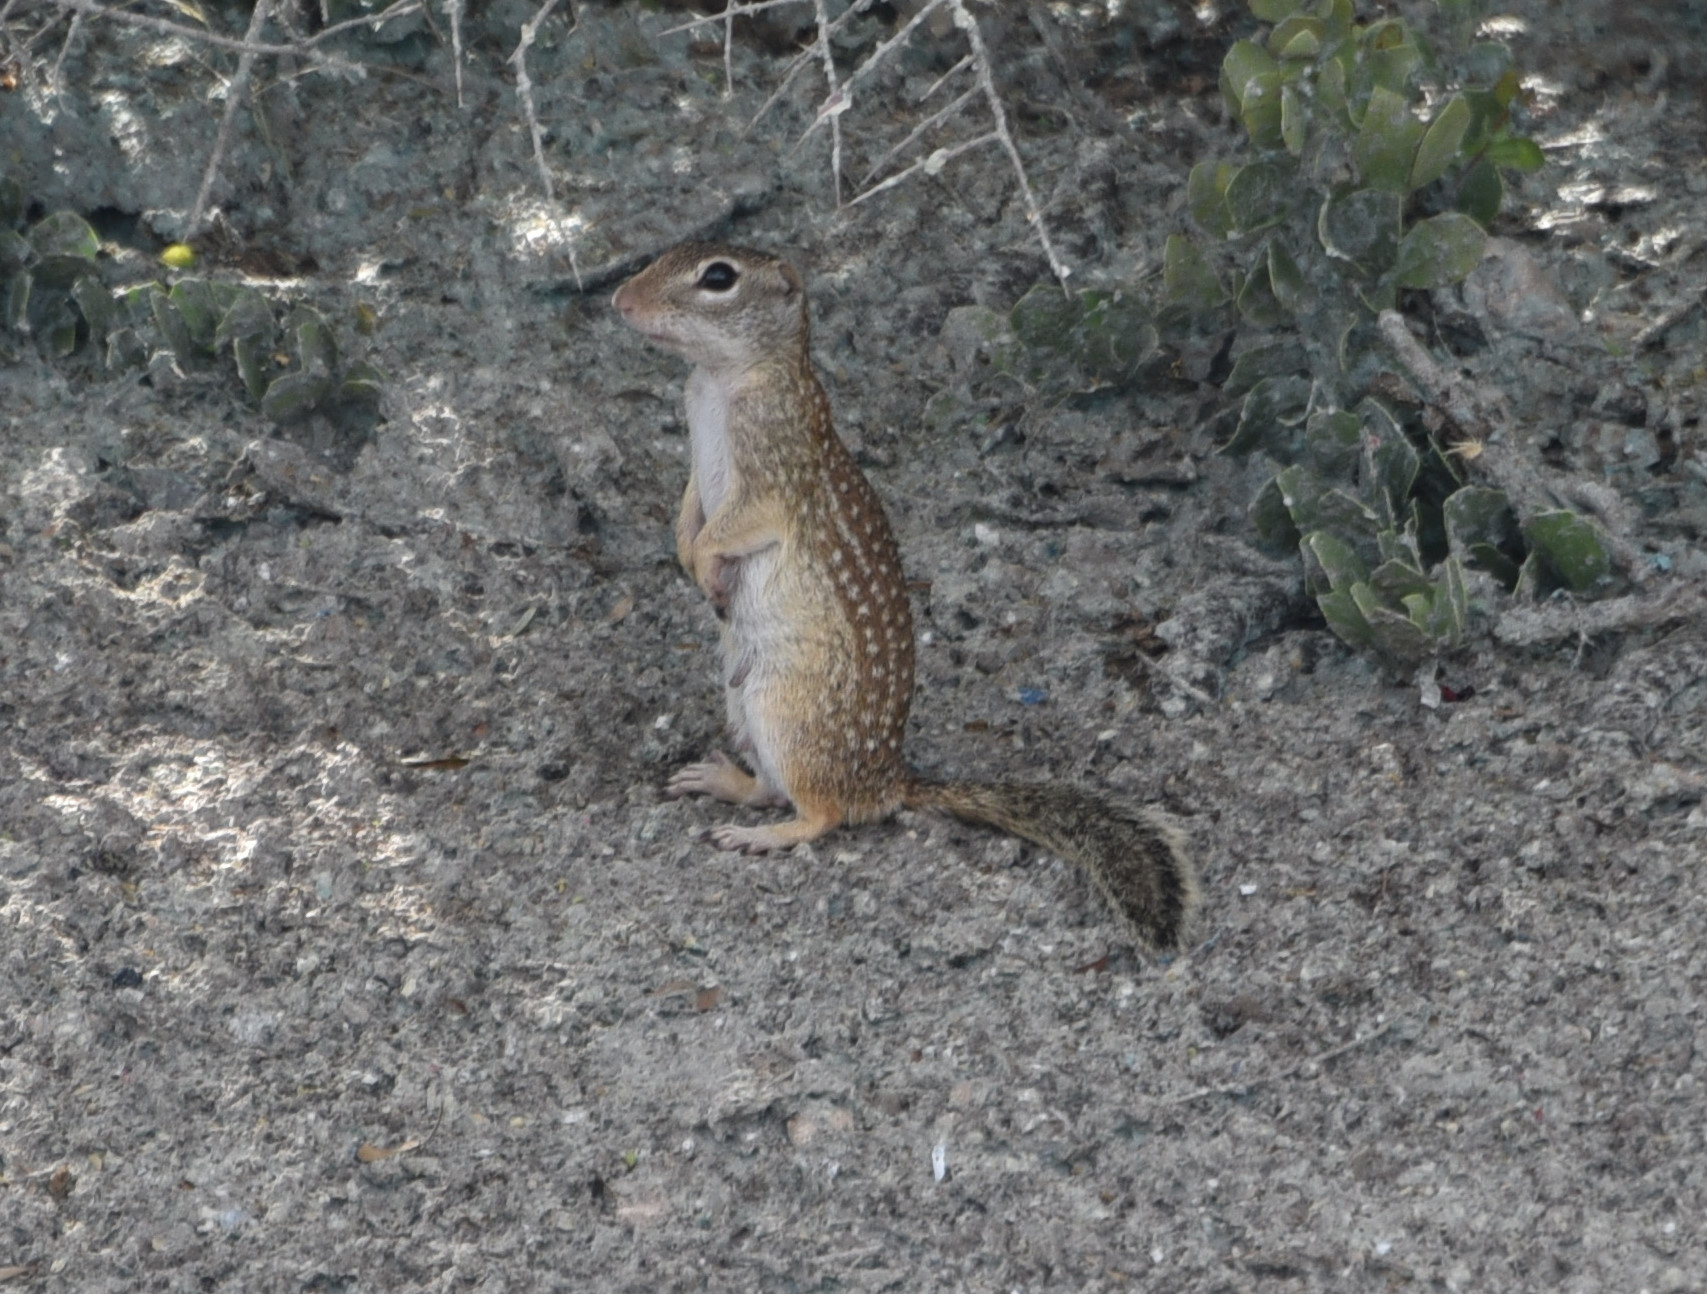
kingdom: Animalia
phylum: Chordata
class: Mammalia
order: Rodentia
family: Sciuridae
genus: Ictidomys
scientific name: Ictidomys parvidens
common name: Rio grande ground squirrel
